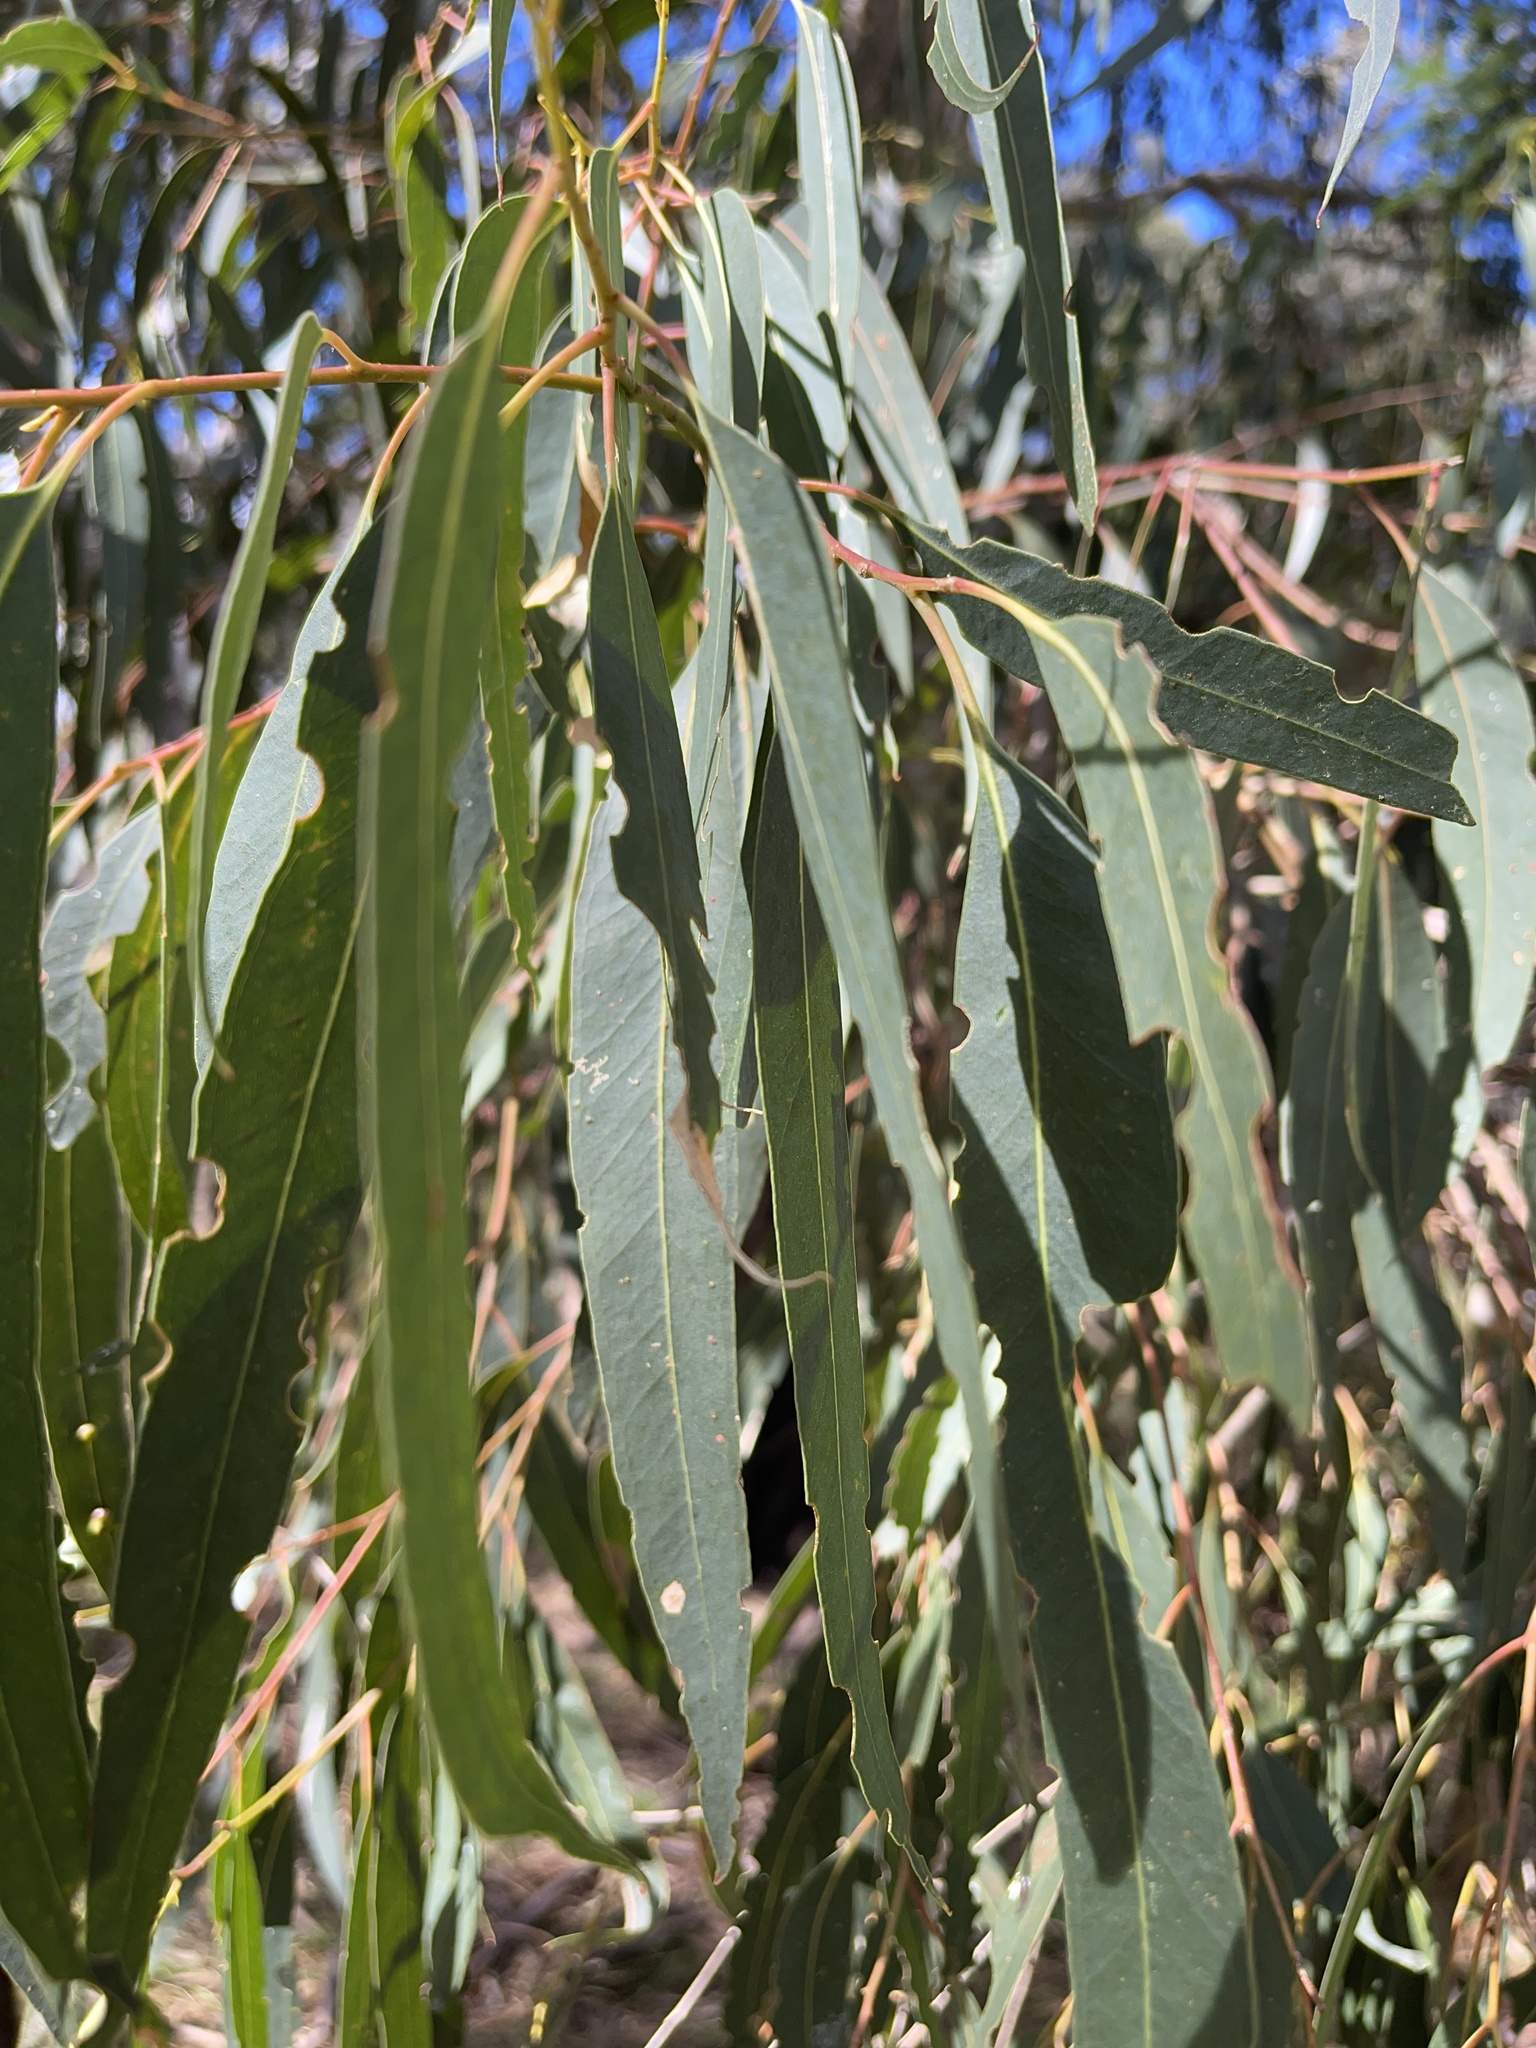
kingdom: Plantae
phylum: Tracheophyta
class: Magnoliopsida
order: Myrtales
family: Myrtaceae
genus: Eucalyptus
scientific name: Eucalyptus cypellocarpa
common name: Mountain grey gum
